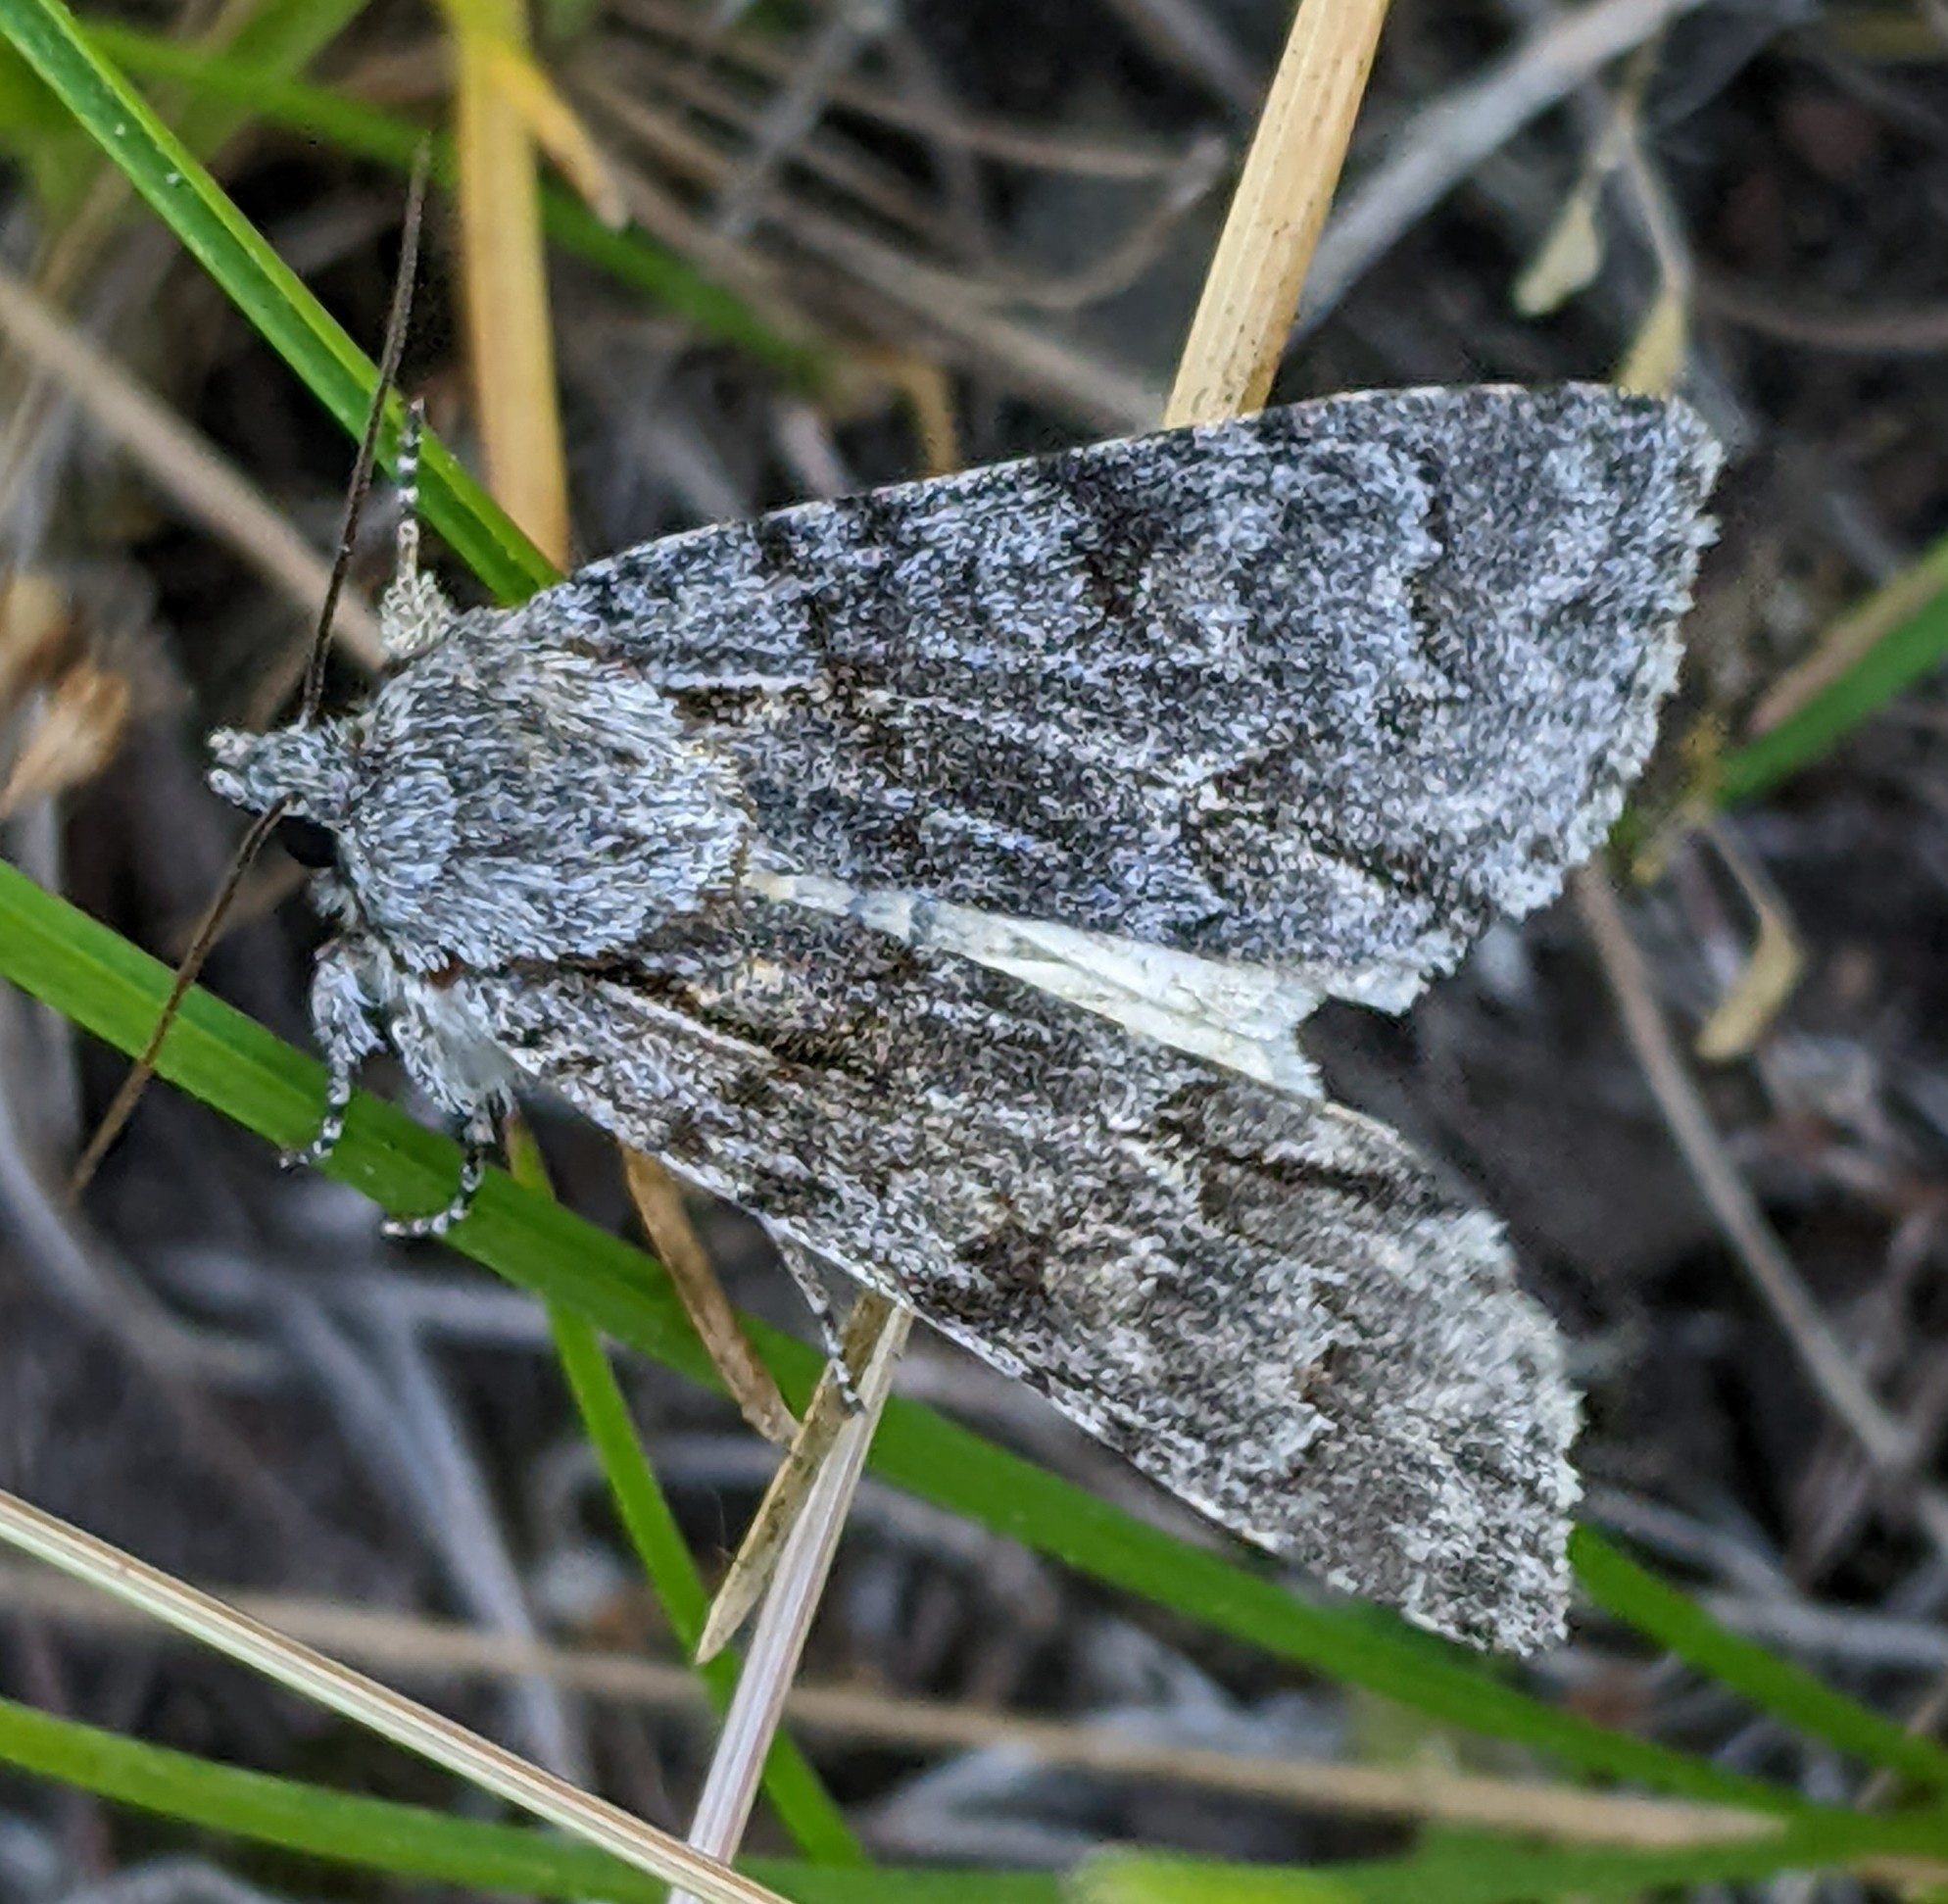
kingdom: Animalia
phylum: Arthropoda
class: Insecta
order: Lepidoptera
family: Noctuidae
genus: Acronicta
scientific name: Acronicta grisea
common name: Gray dagger
